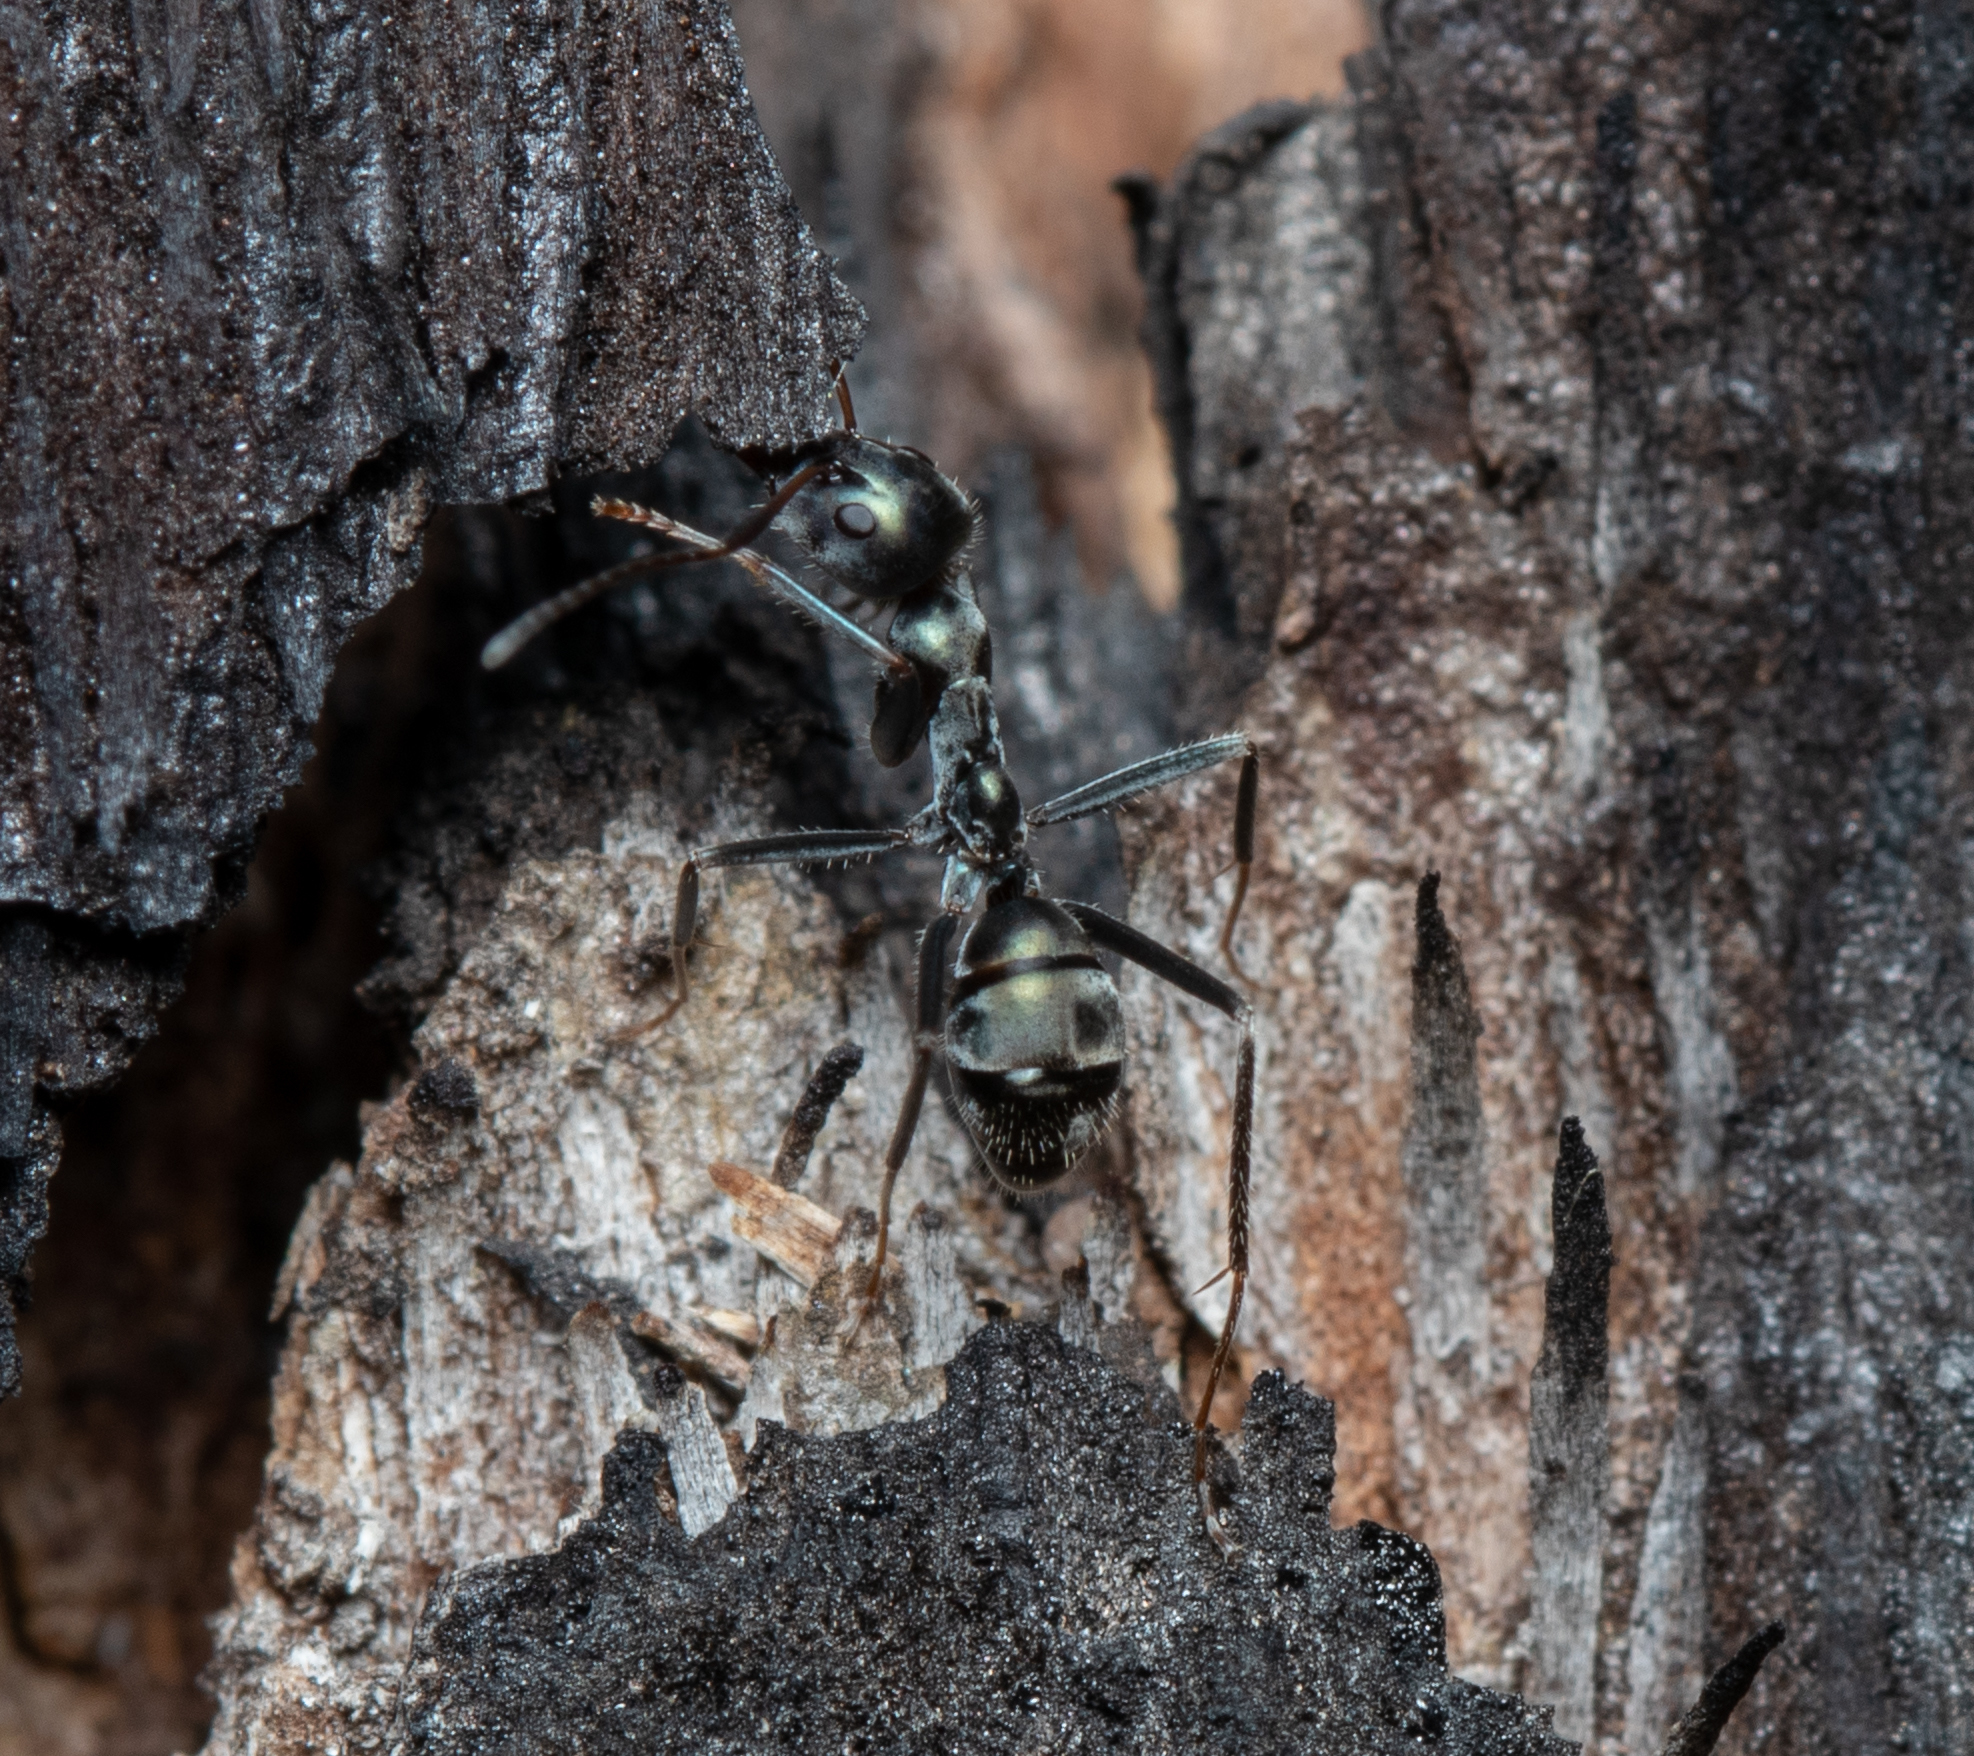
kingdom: Animalia
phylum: Arthropoda
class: Insecta
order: Hymenoptera
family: Formicidae
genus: Iridomyrmex
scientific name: Iridomyrmex
